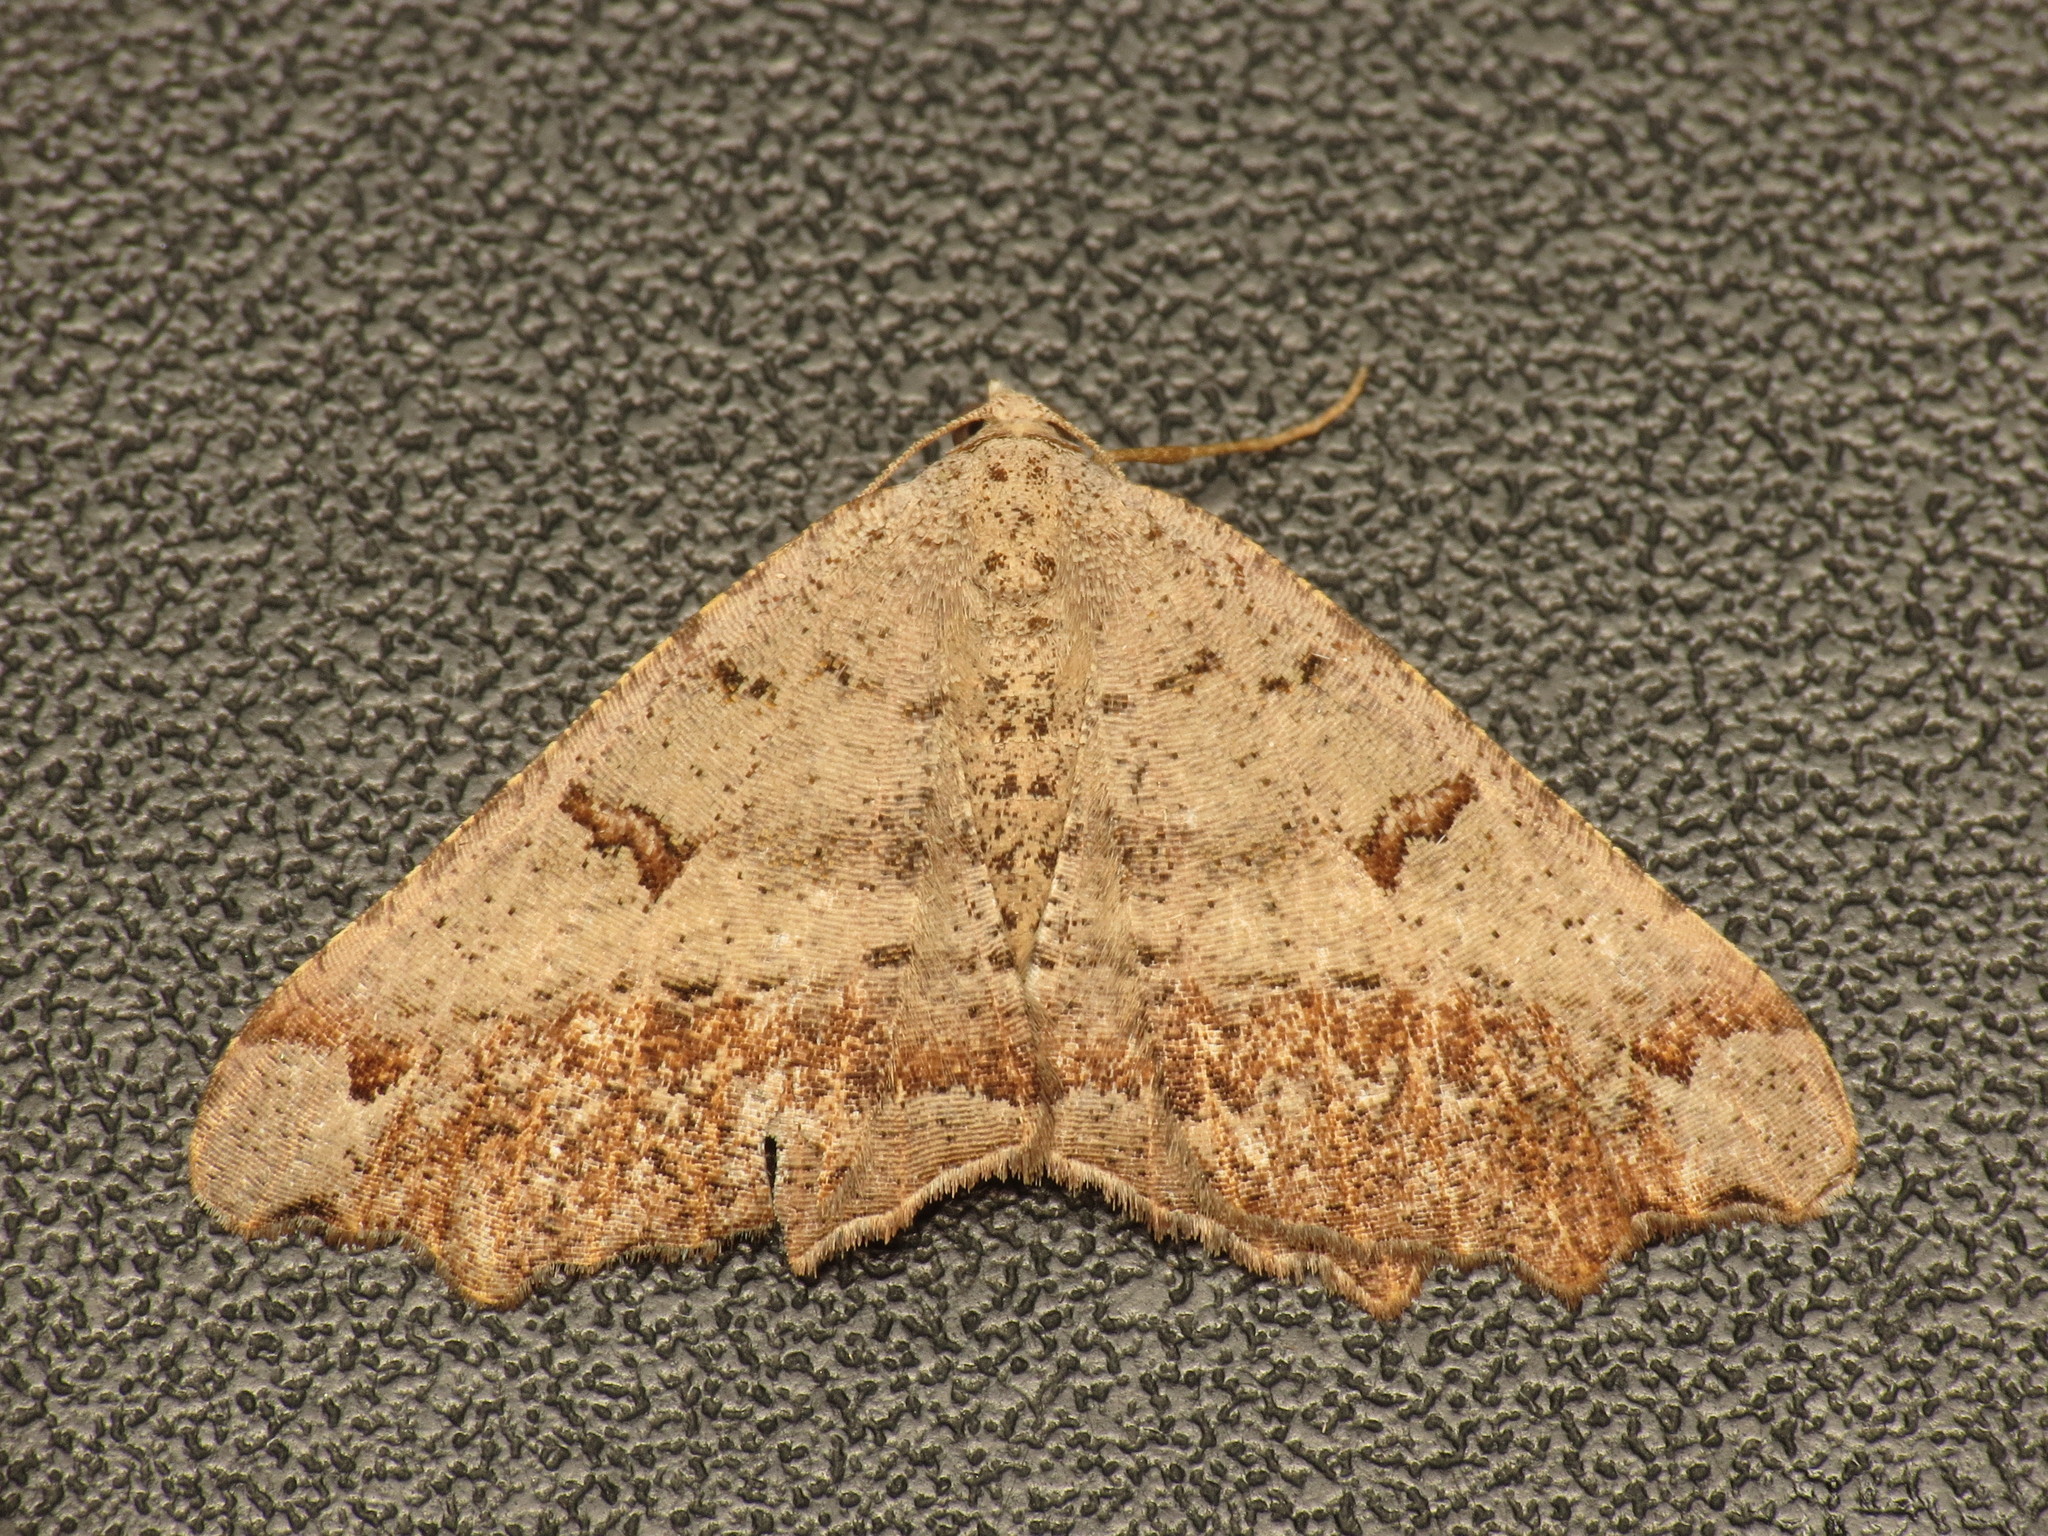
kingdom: Animalia
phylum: Arthropoda
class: Insecta
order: Lepidoptera
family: Geometridae
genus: Dissomorphia
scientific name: Dissomorphia australiaria
